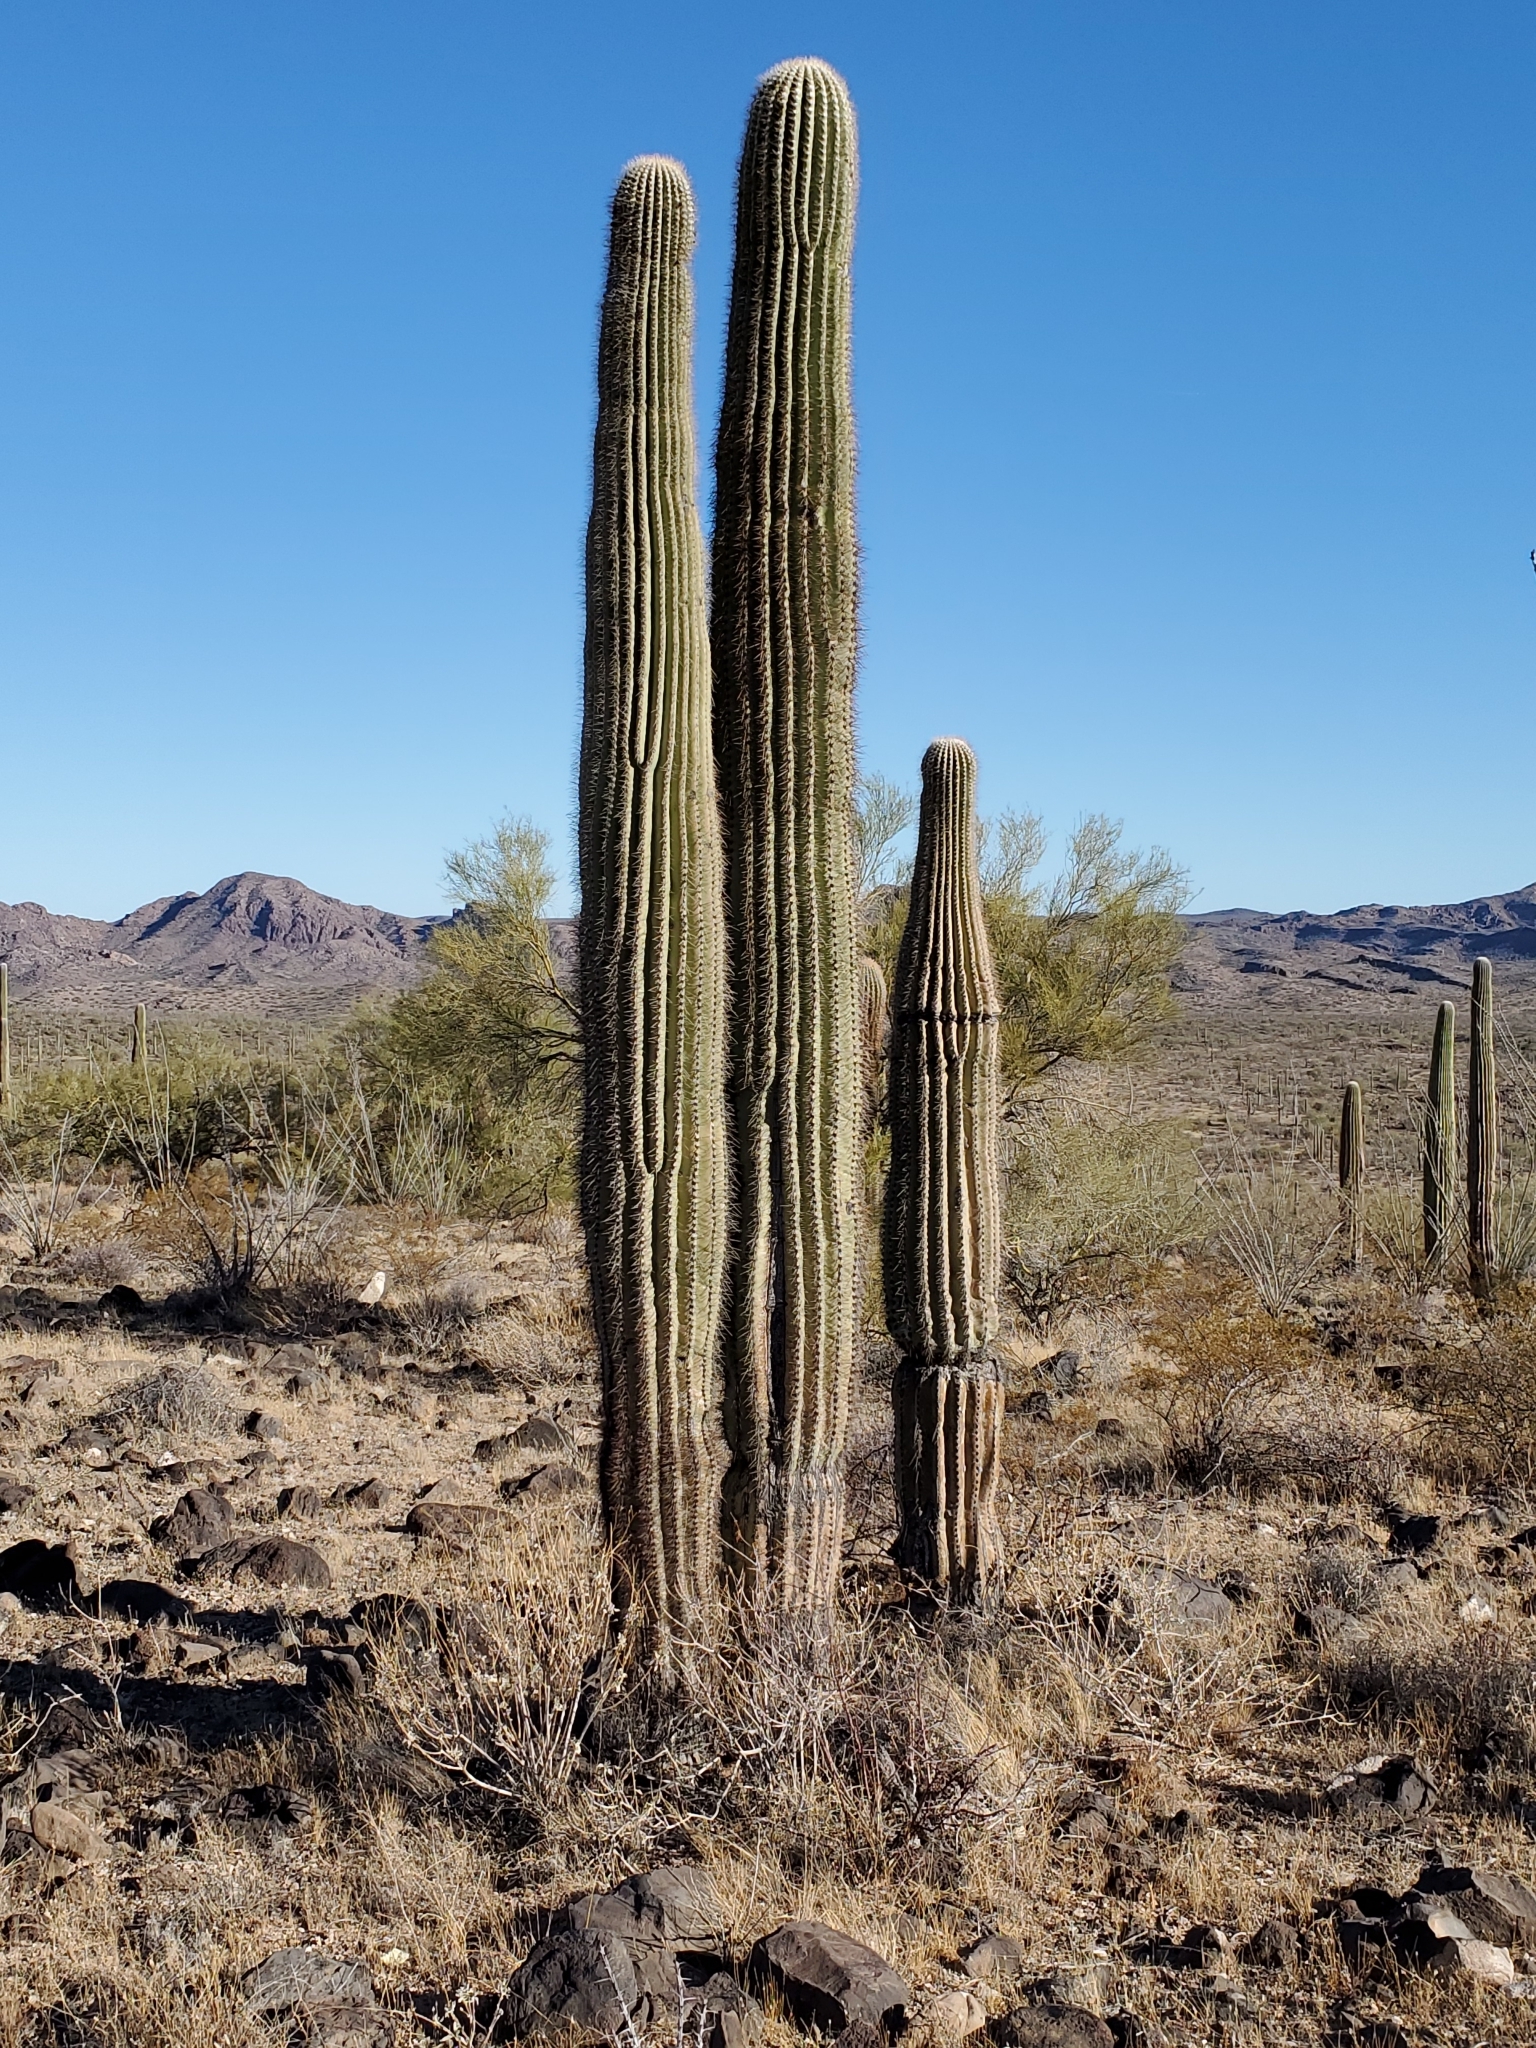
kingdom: Plantae
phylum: Tracheophyta
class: Magnoliopsida
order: Caryophyllales
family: Cactaceae
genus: Carnegiea
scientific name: Carnegiea gigantea
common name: Saguaro
